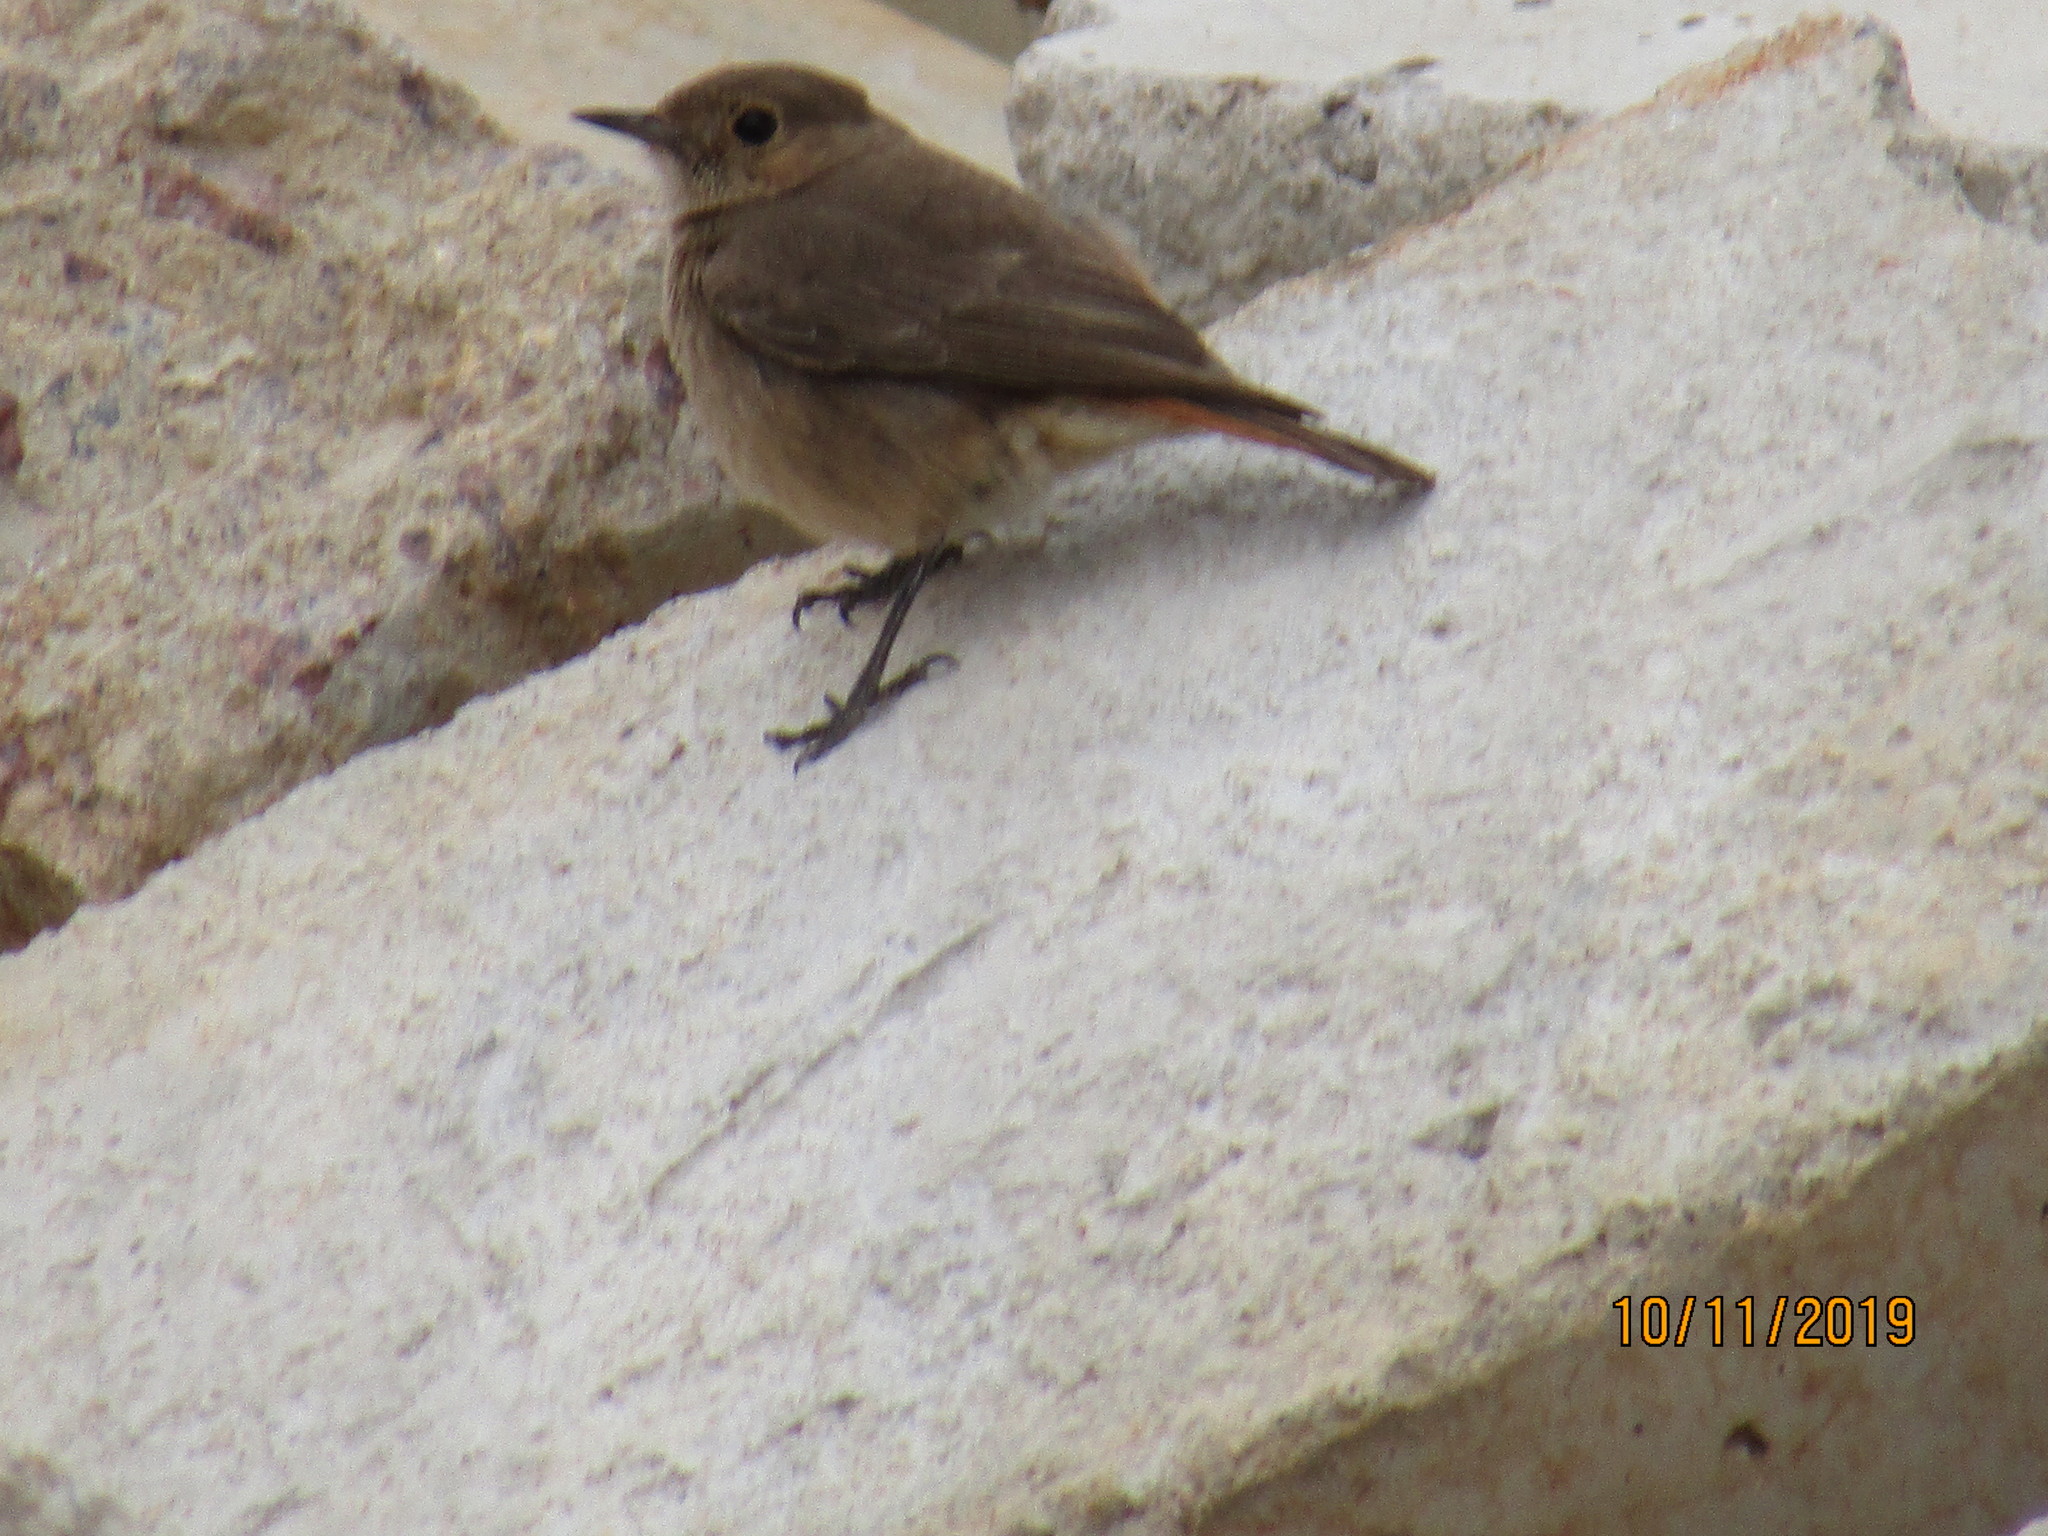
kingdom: Animalia
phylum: Chordata
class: Aves
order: Passeriformes
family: Muscicapidae
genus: Oenanthe
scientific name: Oenanthe familiaris
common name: Familiar chat
